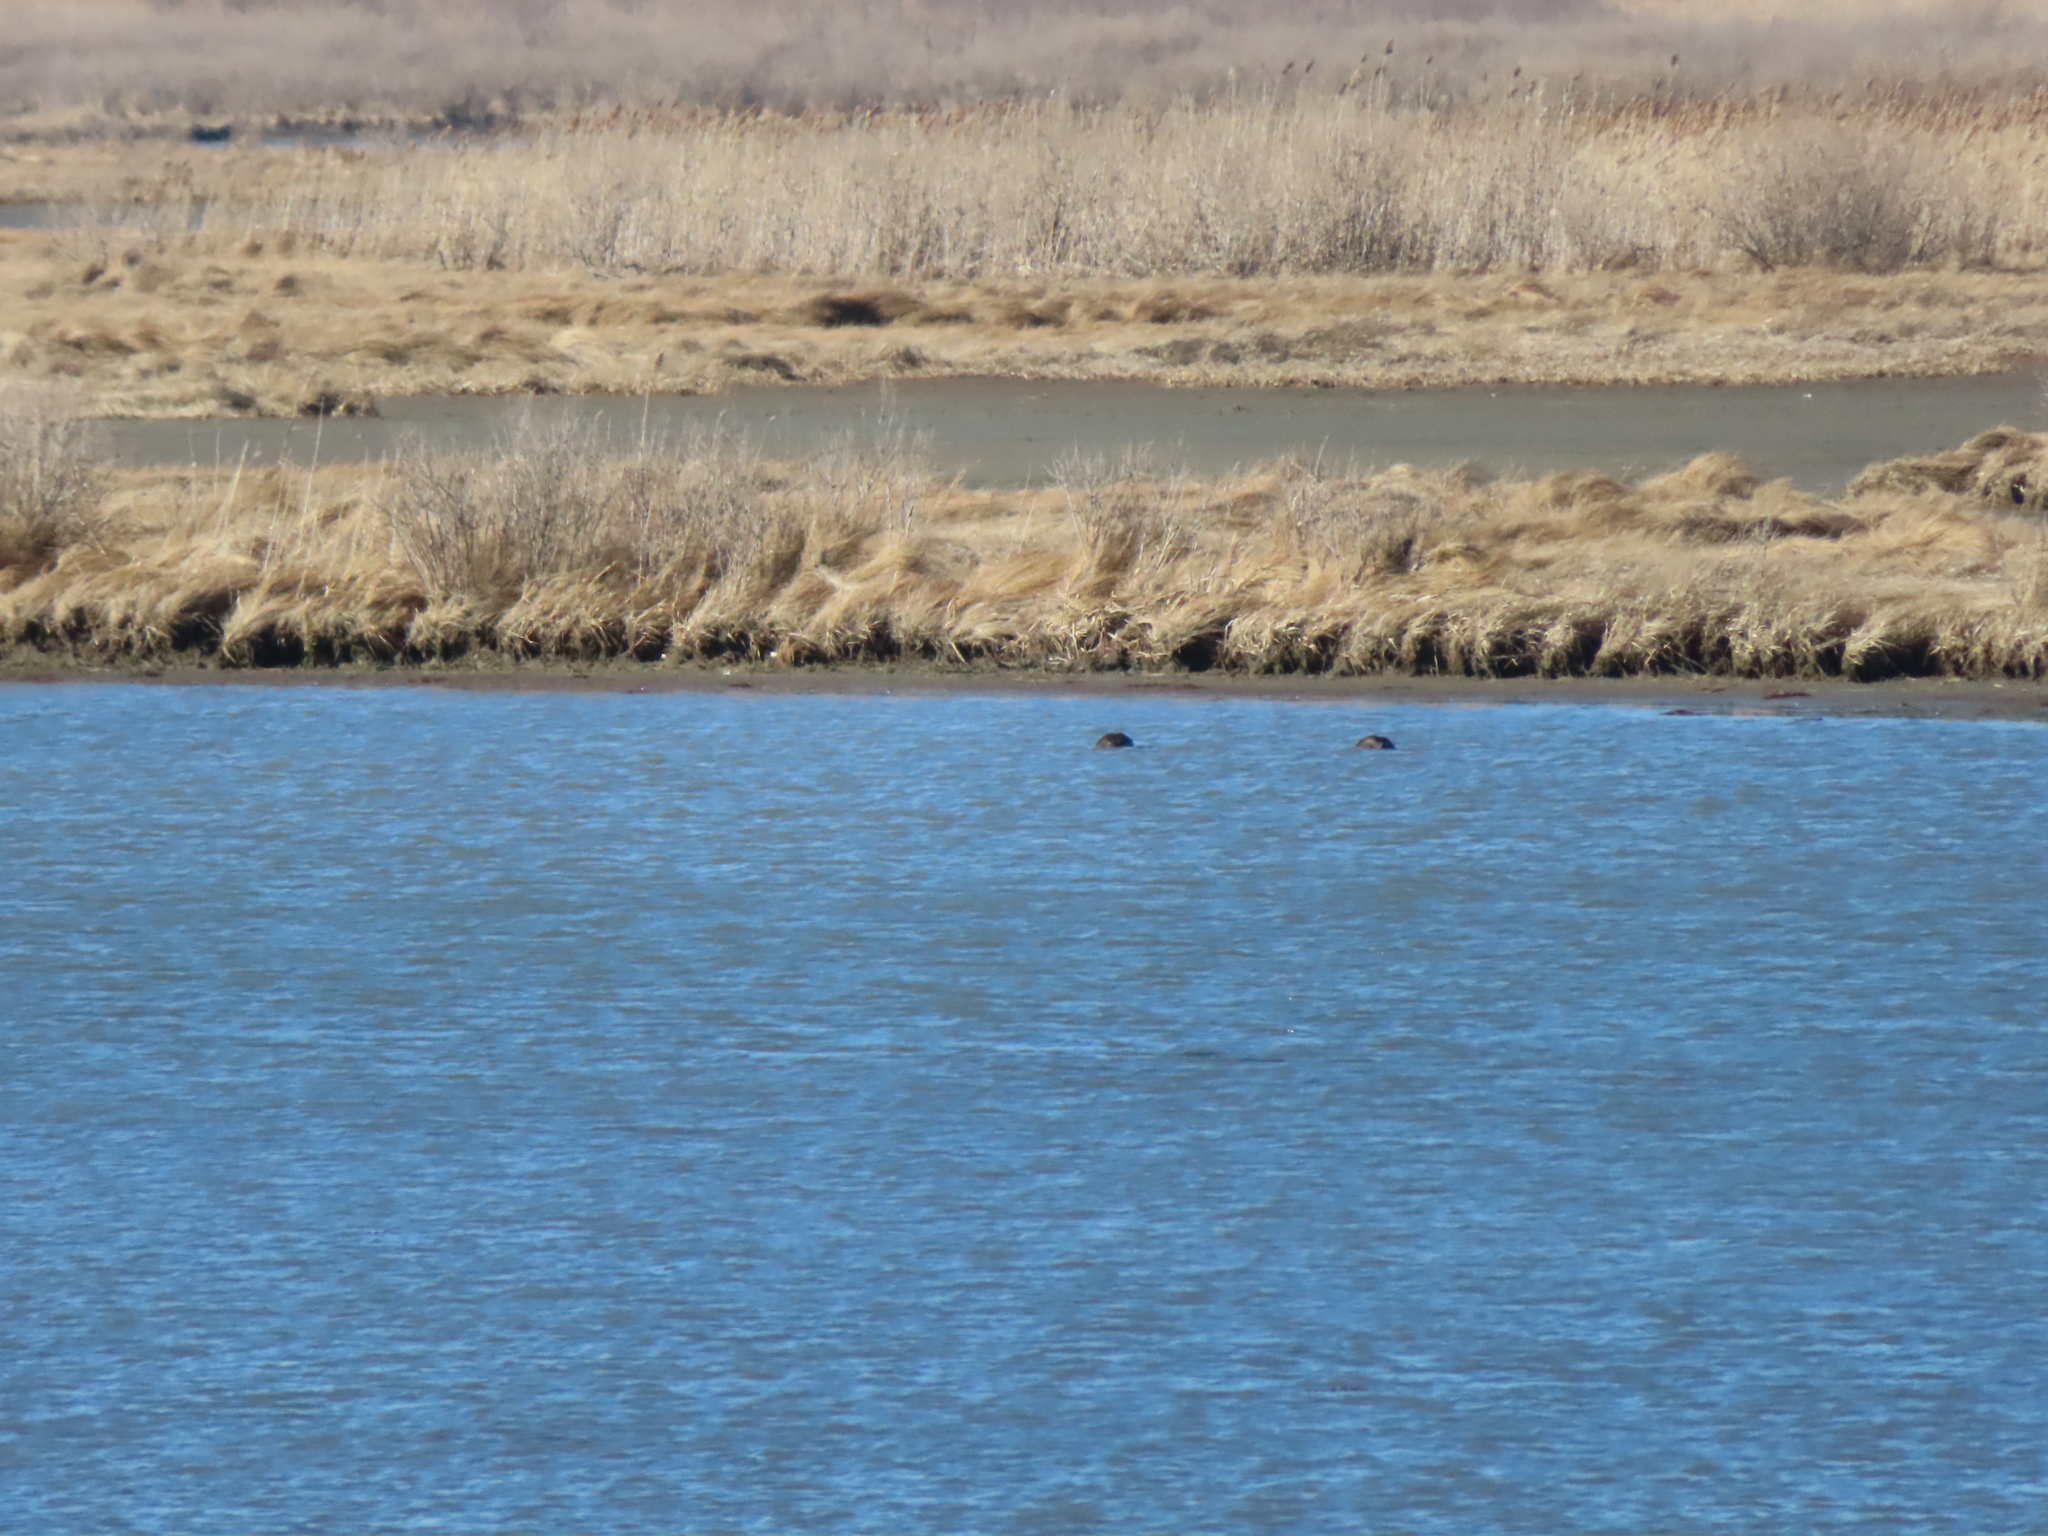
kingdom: Animalia
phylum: Chordata
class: Aves
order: Anseriformes
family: Anatidae
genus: Anas
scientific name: Anas rubripes
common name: American black duck
